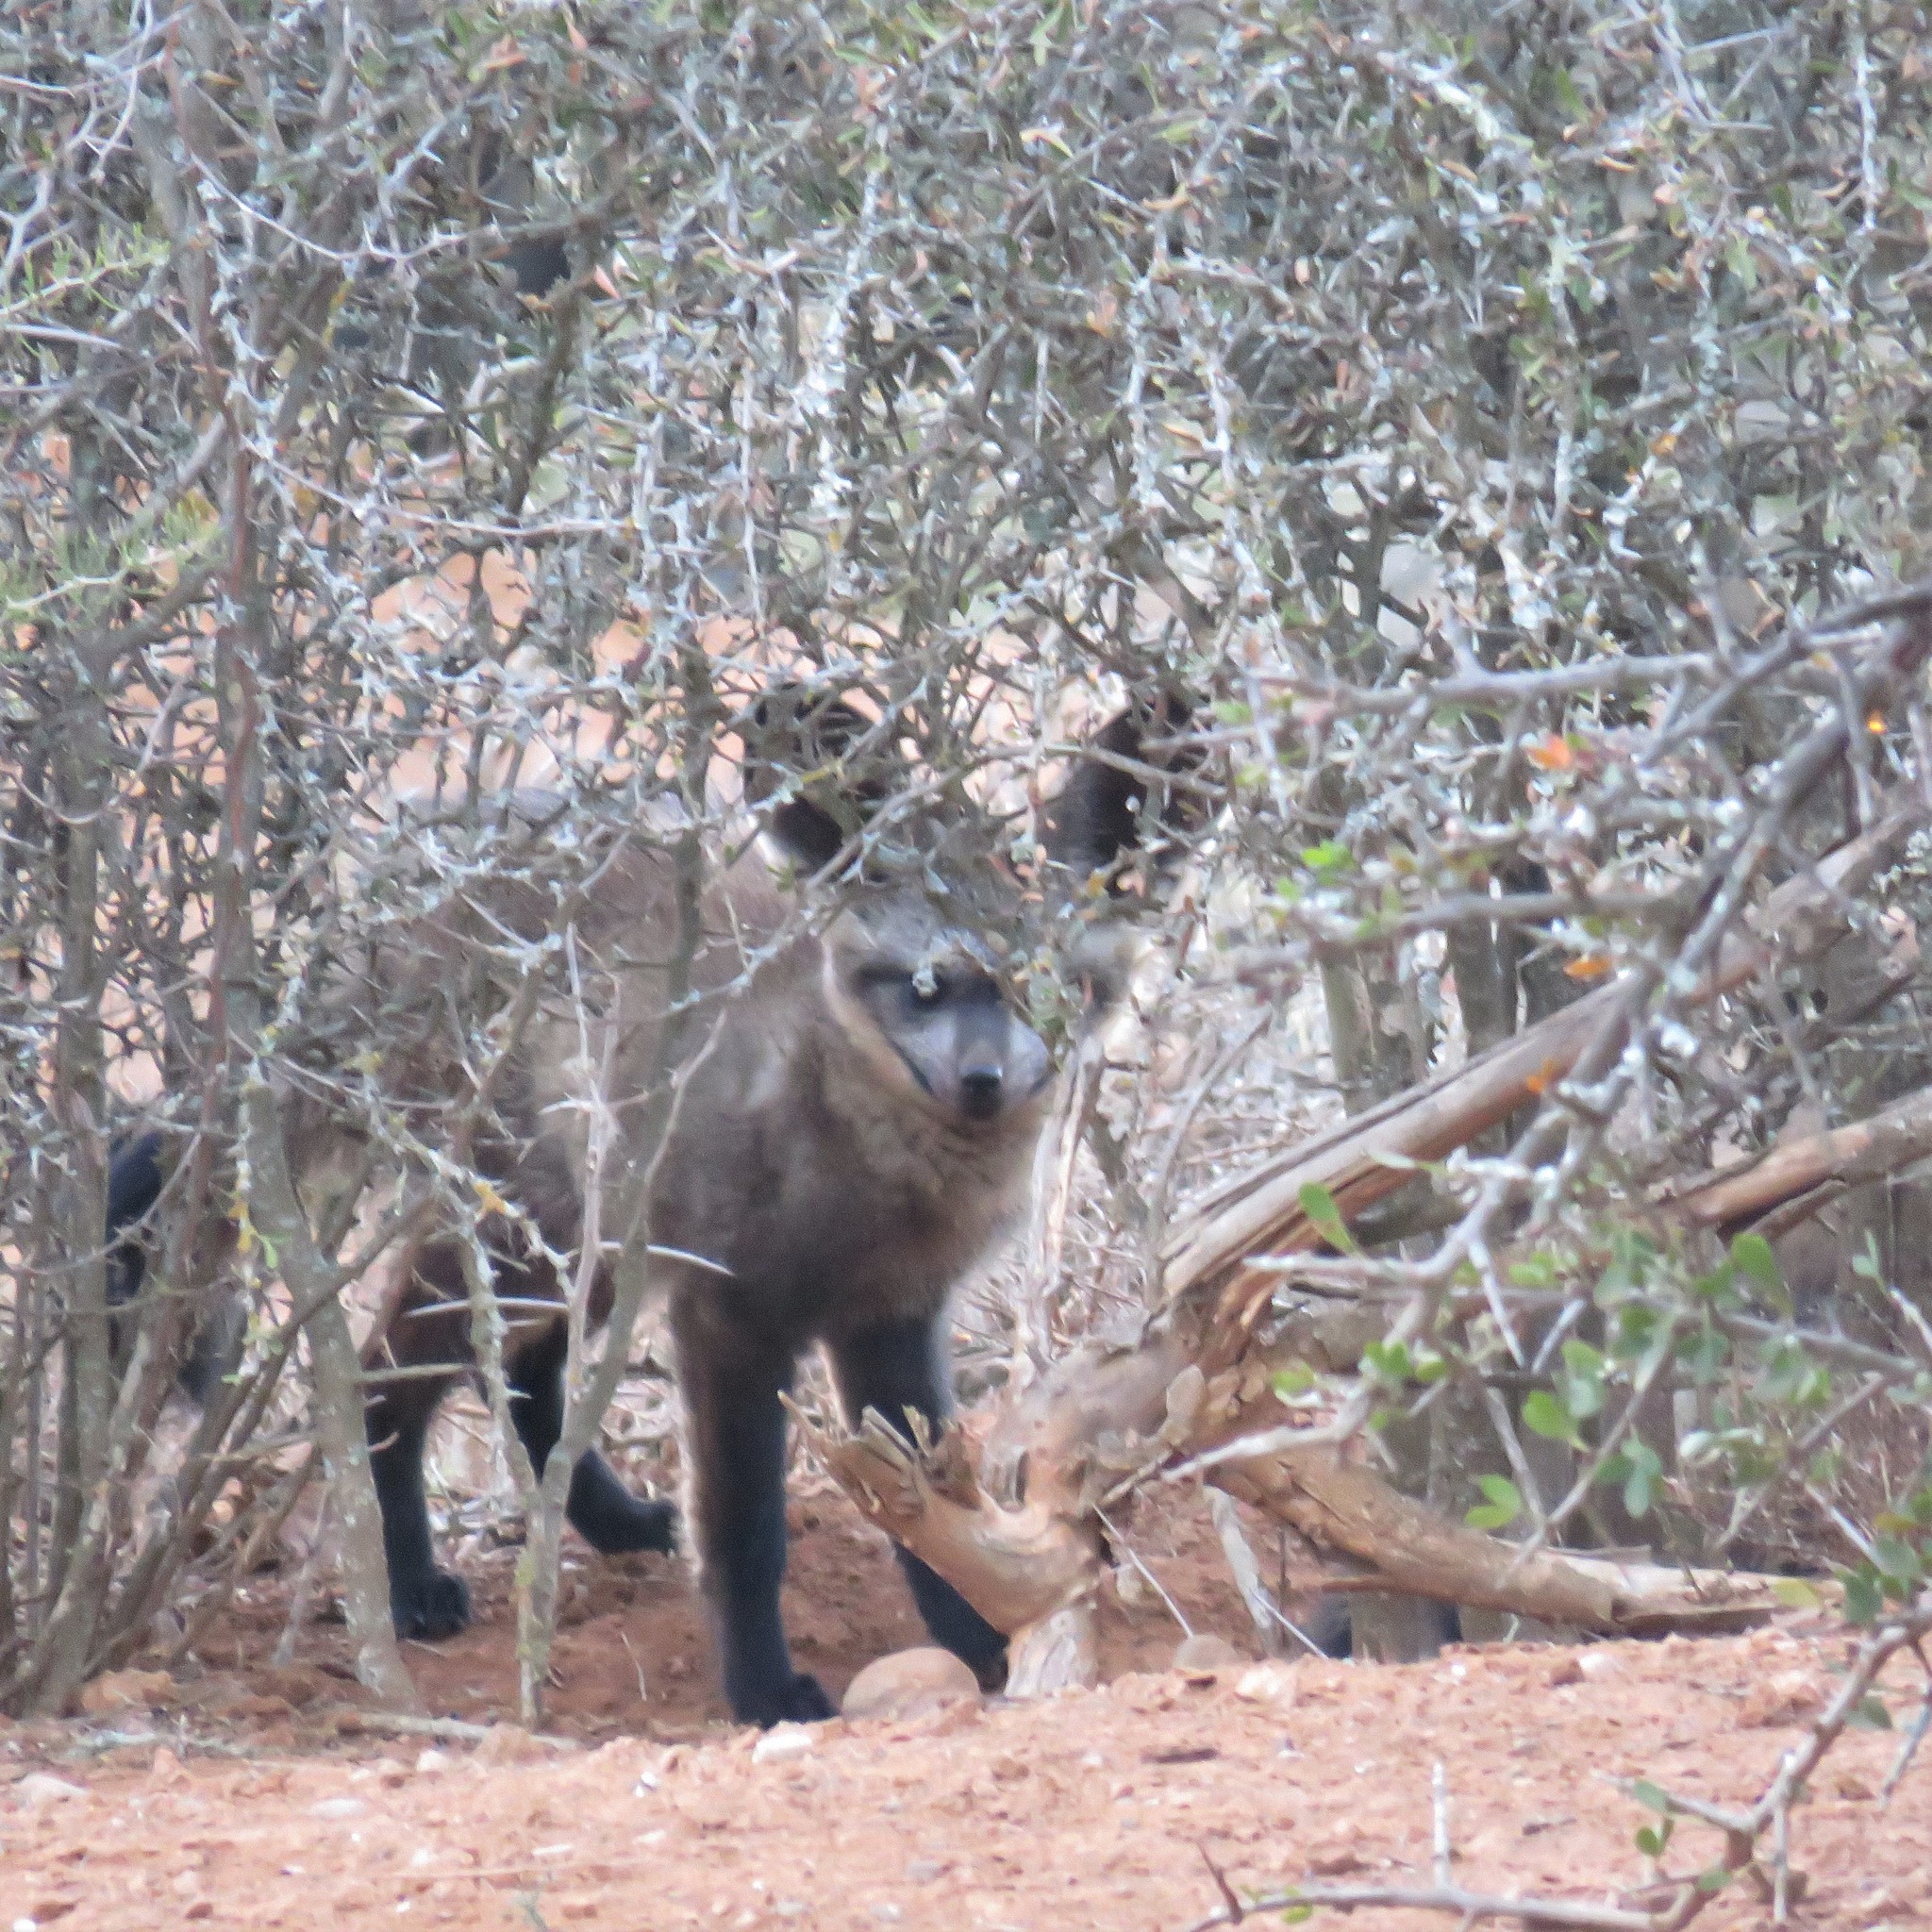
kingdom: Animalia
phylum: Chordata
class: Mammalia
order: Carnivora
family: Canidae
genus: Otocyon
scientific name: Otocyon megalotis
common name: Bat-eared fox
